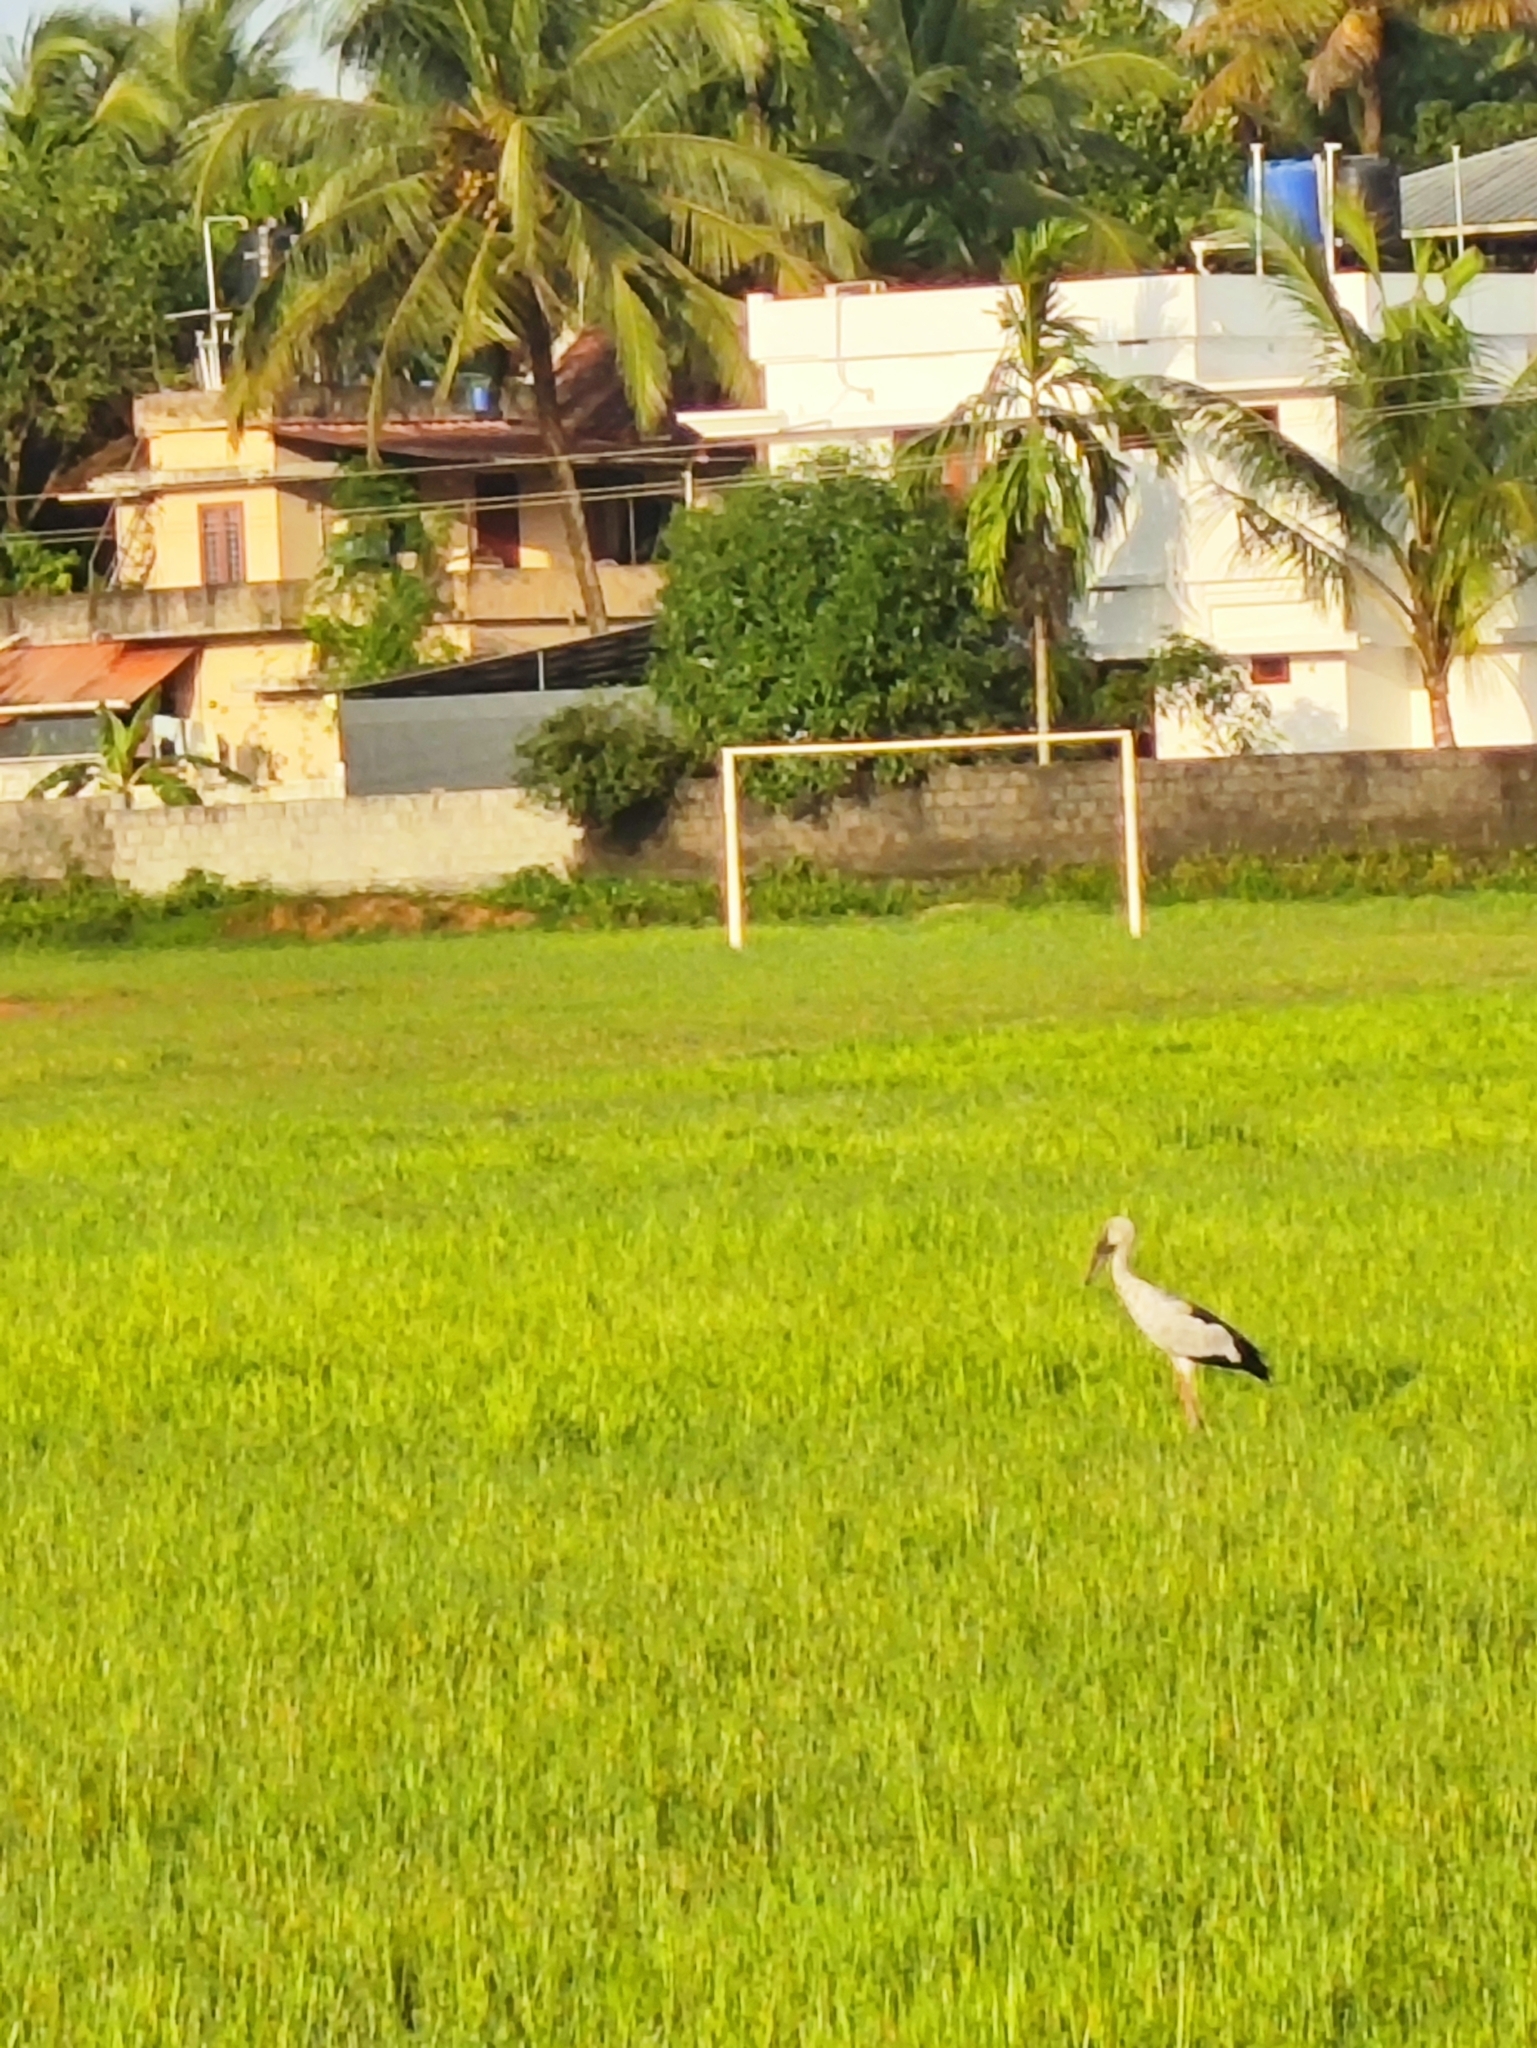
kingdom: Animalia
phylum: Chordata
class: Aves
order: Ciconiiformes
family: Ciconiidae
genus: Anastomus
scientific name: Anastomus oscitans
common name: Asian openbill
